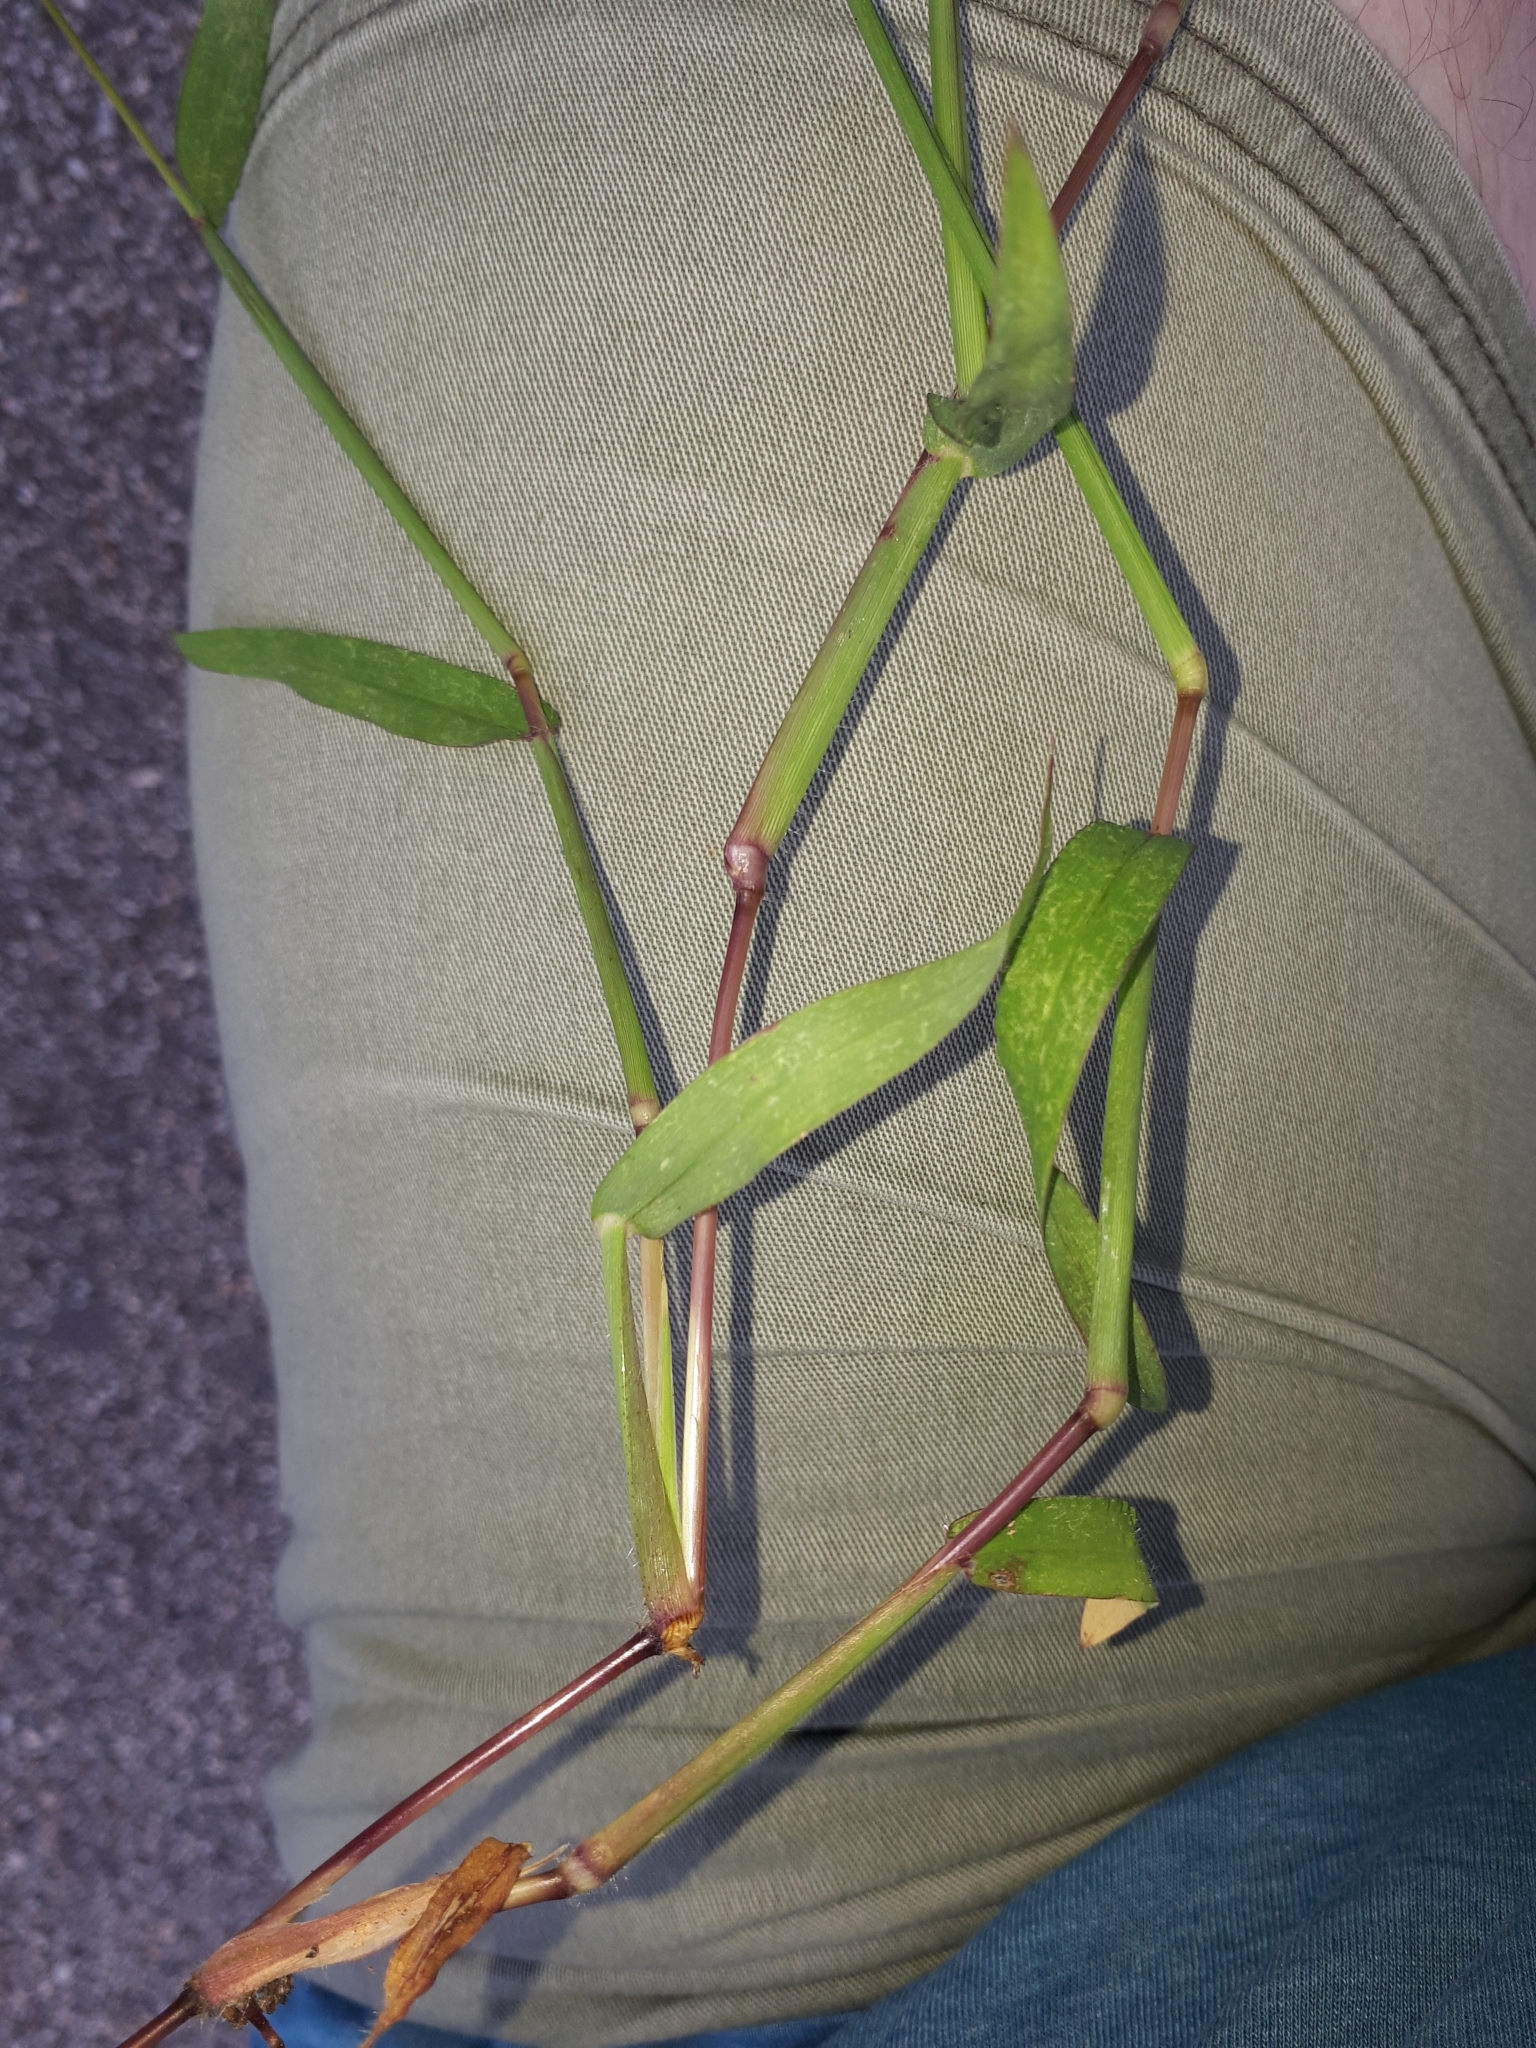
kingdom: Plantae
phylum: Tracheophyta
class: Liliopsida
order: Poales
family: Poaceae
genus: Digitaria
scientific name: Digitaria sanguinalis
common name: Hairy crabgrass
